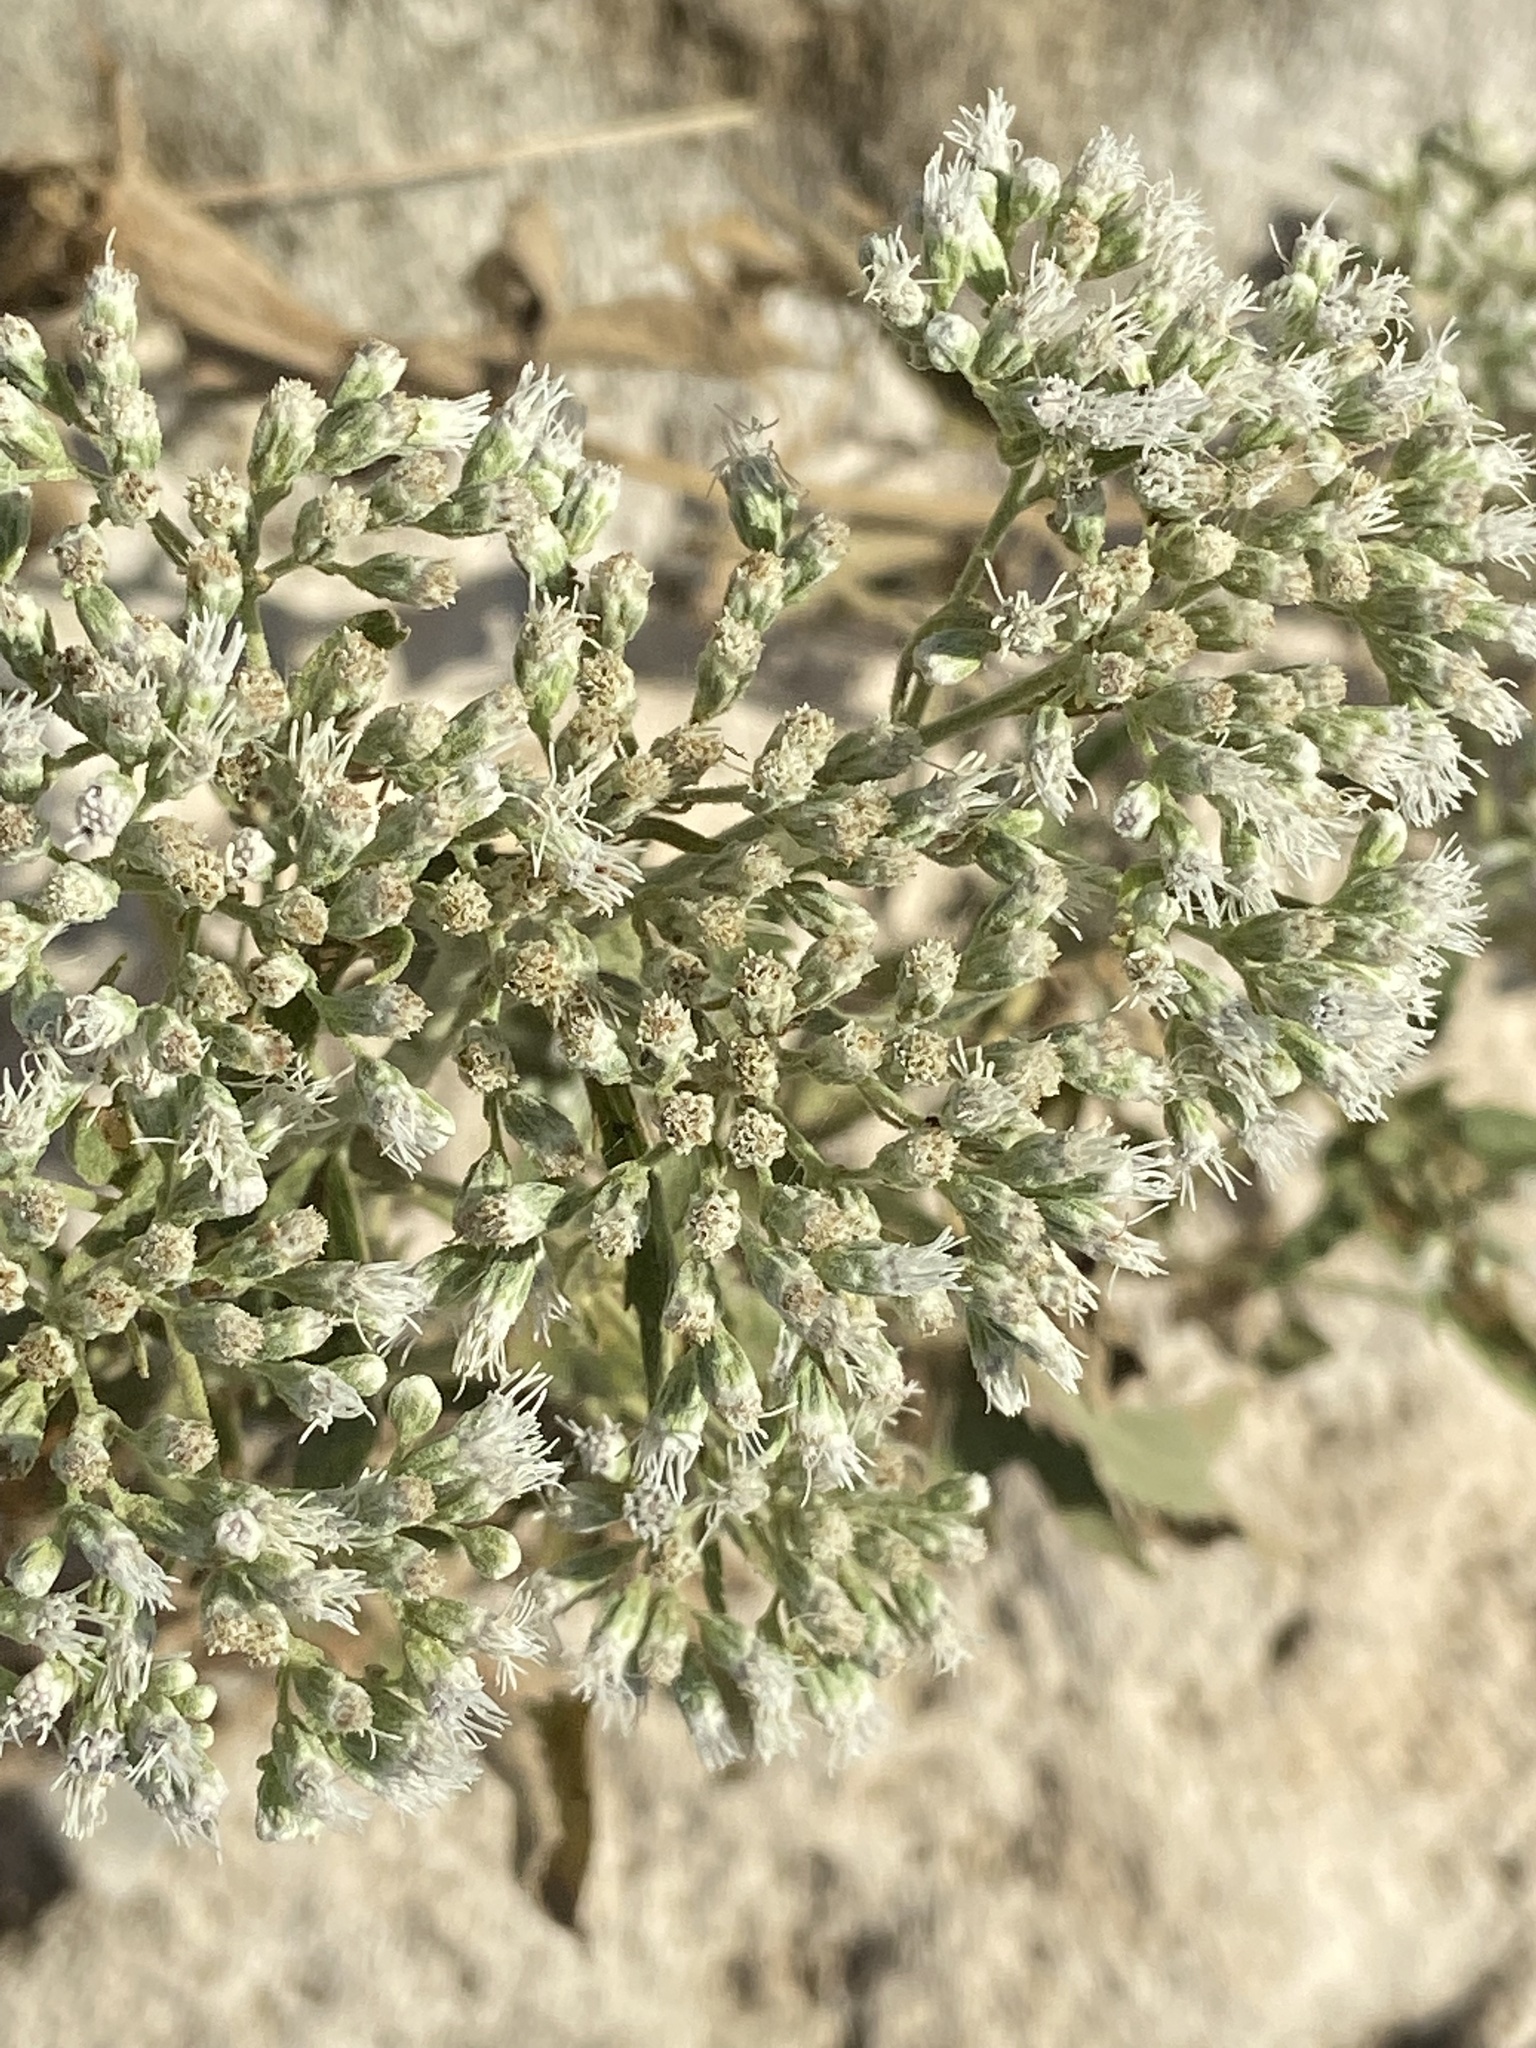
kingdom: Plantae
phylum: Tracheophyta
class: Magnoliopsida
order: Asterales
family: Asteraceae
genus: Eupatorium
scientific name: Eupatorium serotinum
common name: Late boneset
